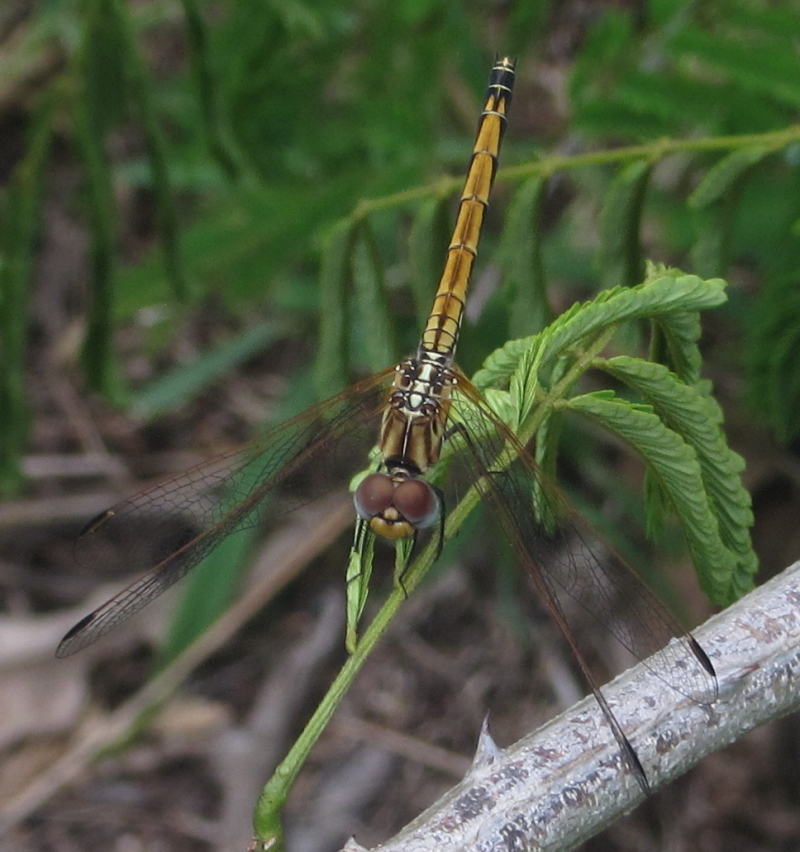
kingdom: Animalia
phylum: Arthropoda
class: Insecta
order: Odonata
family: Libellulidae
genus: Trithemis
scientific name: Trithemis arteriosa
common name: Red-veined dropwing
